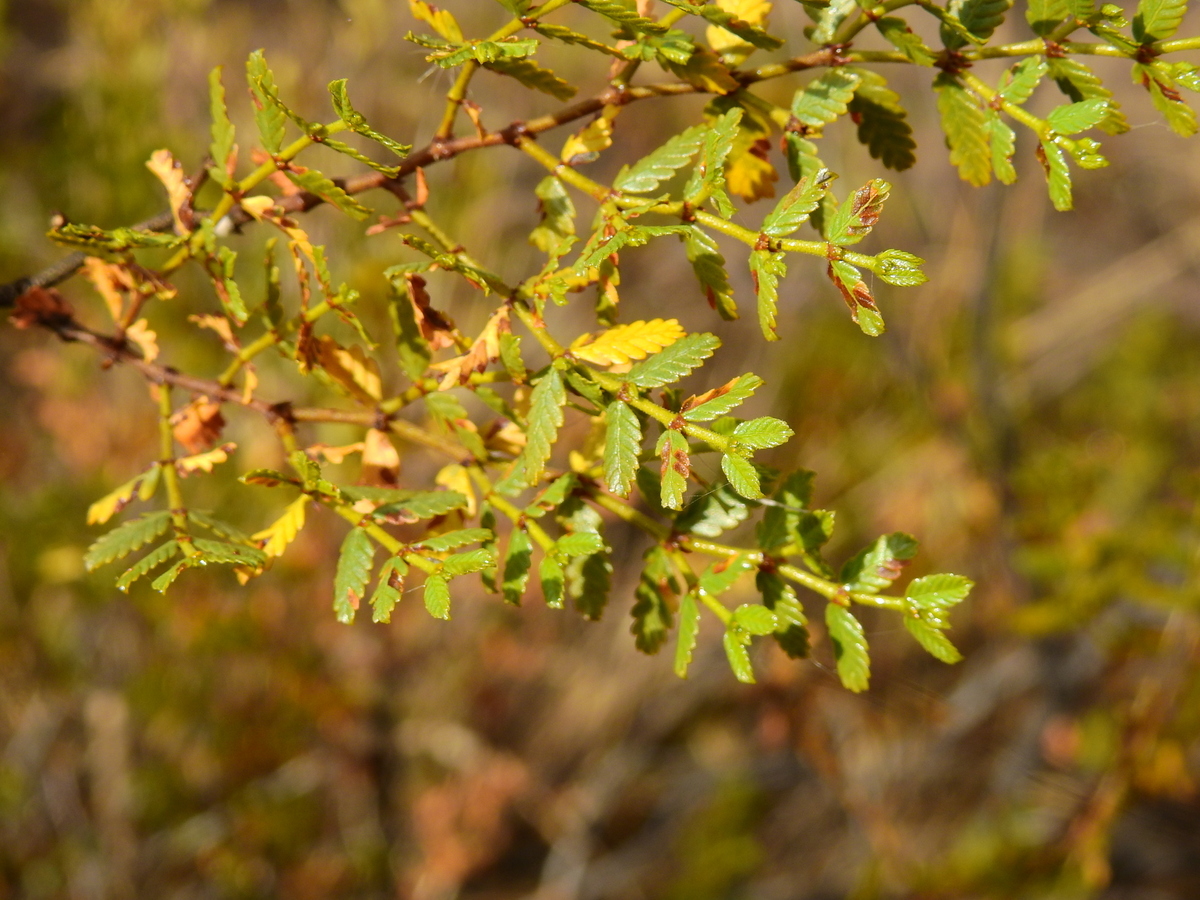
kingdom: Plantae
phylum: Tracheophyta
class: Magnoliopsida
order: Zygophyllales
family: Zygophyllaceae
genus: Larrea
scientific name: Larrea nitida
